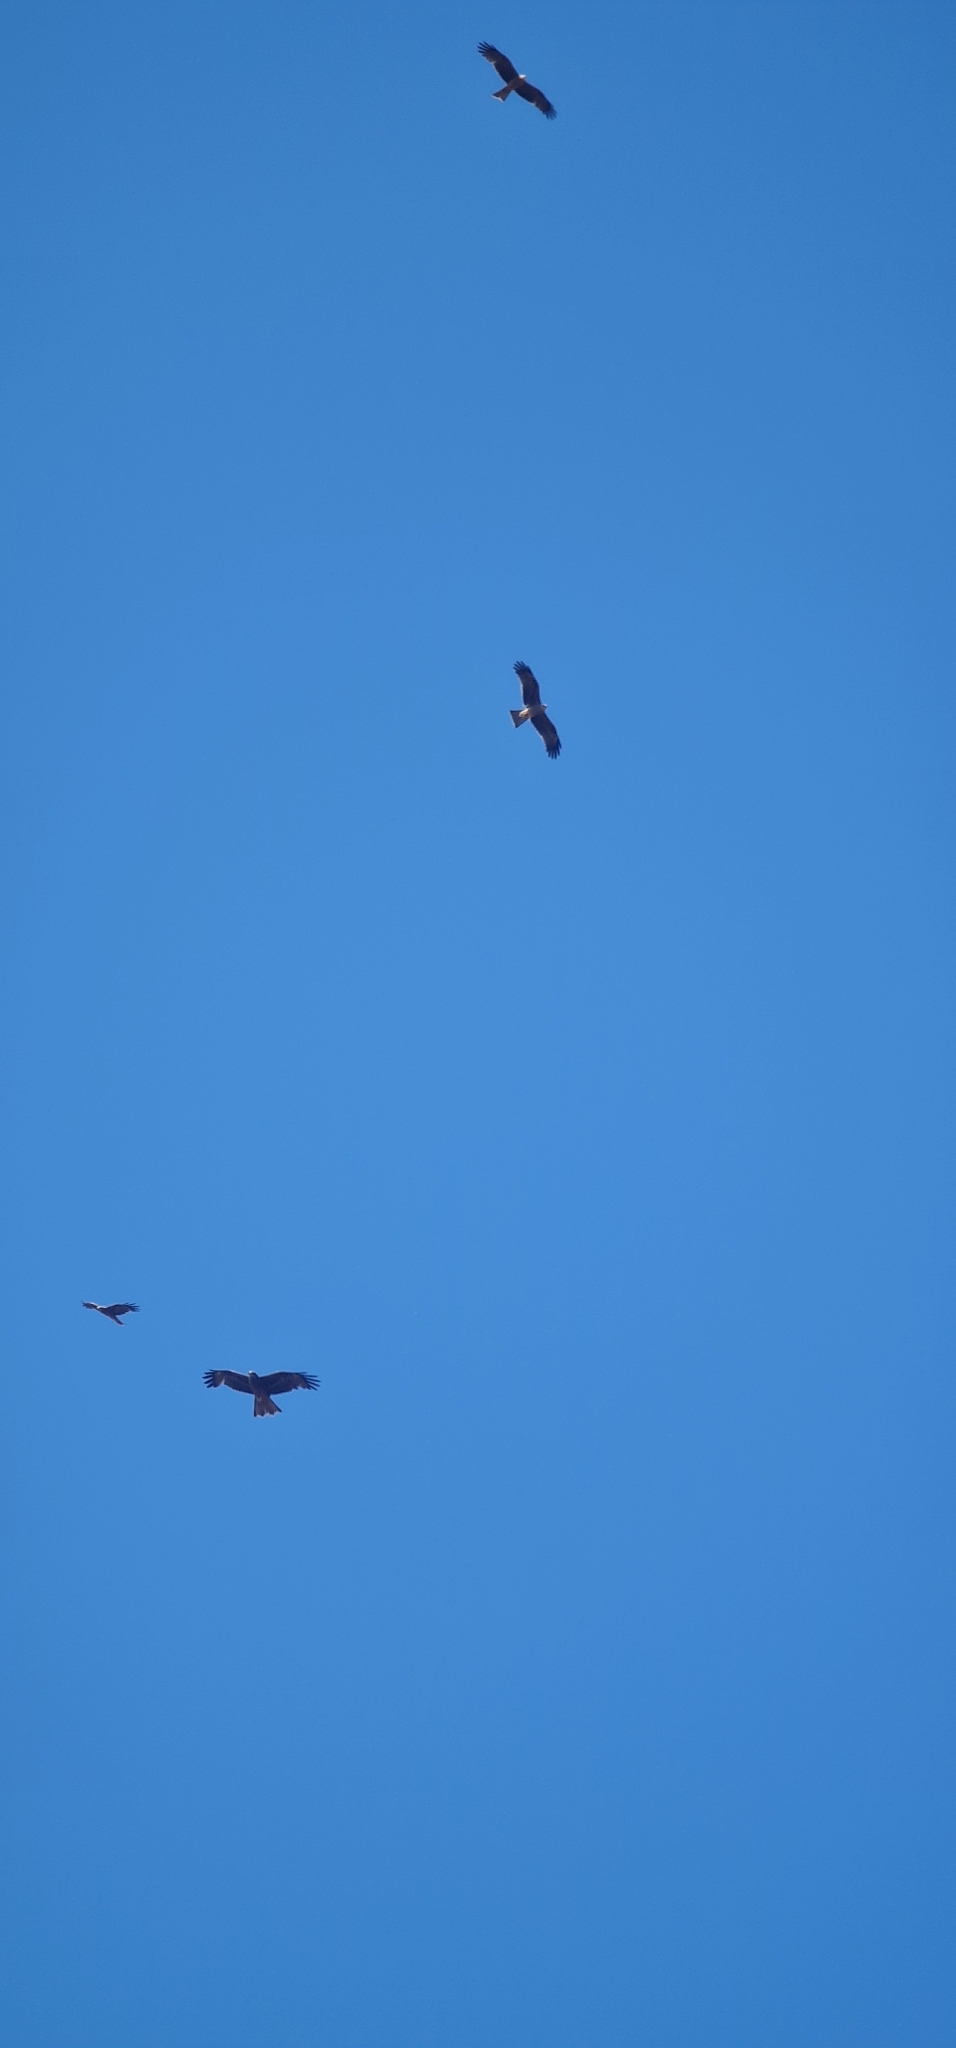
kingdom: Animalia
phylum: Chordata
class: Aves
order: Accipitriformes
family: Accipitridae
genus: Milvus
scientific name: Milvus migrans
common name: Black kite
